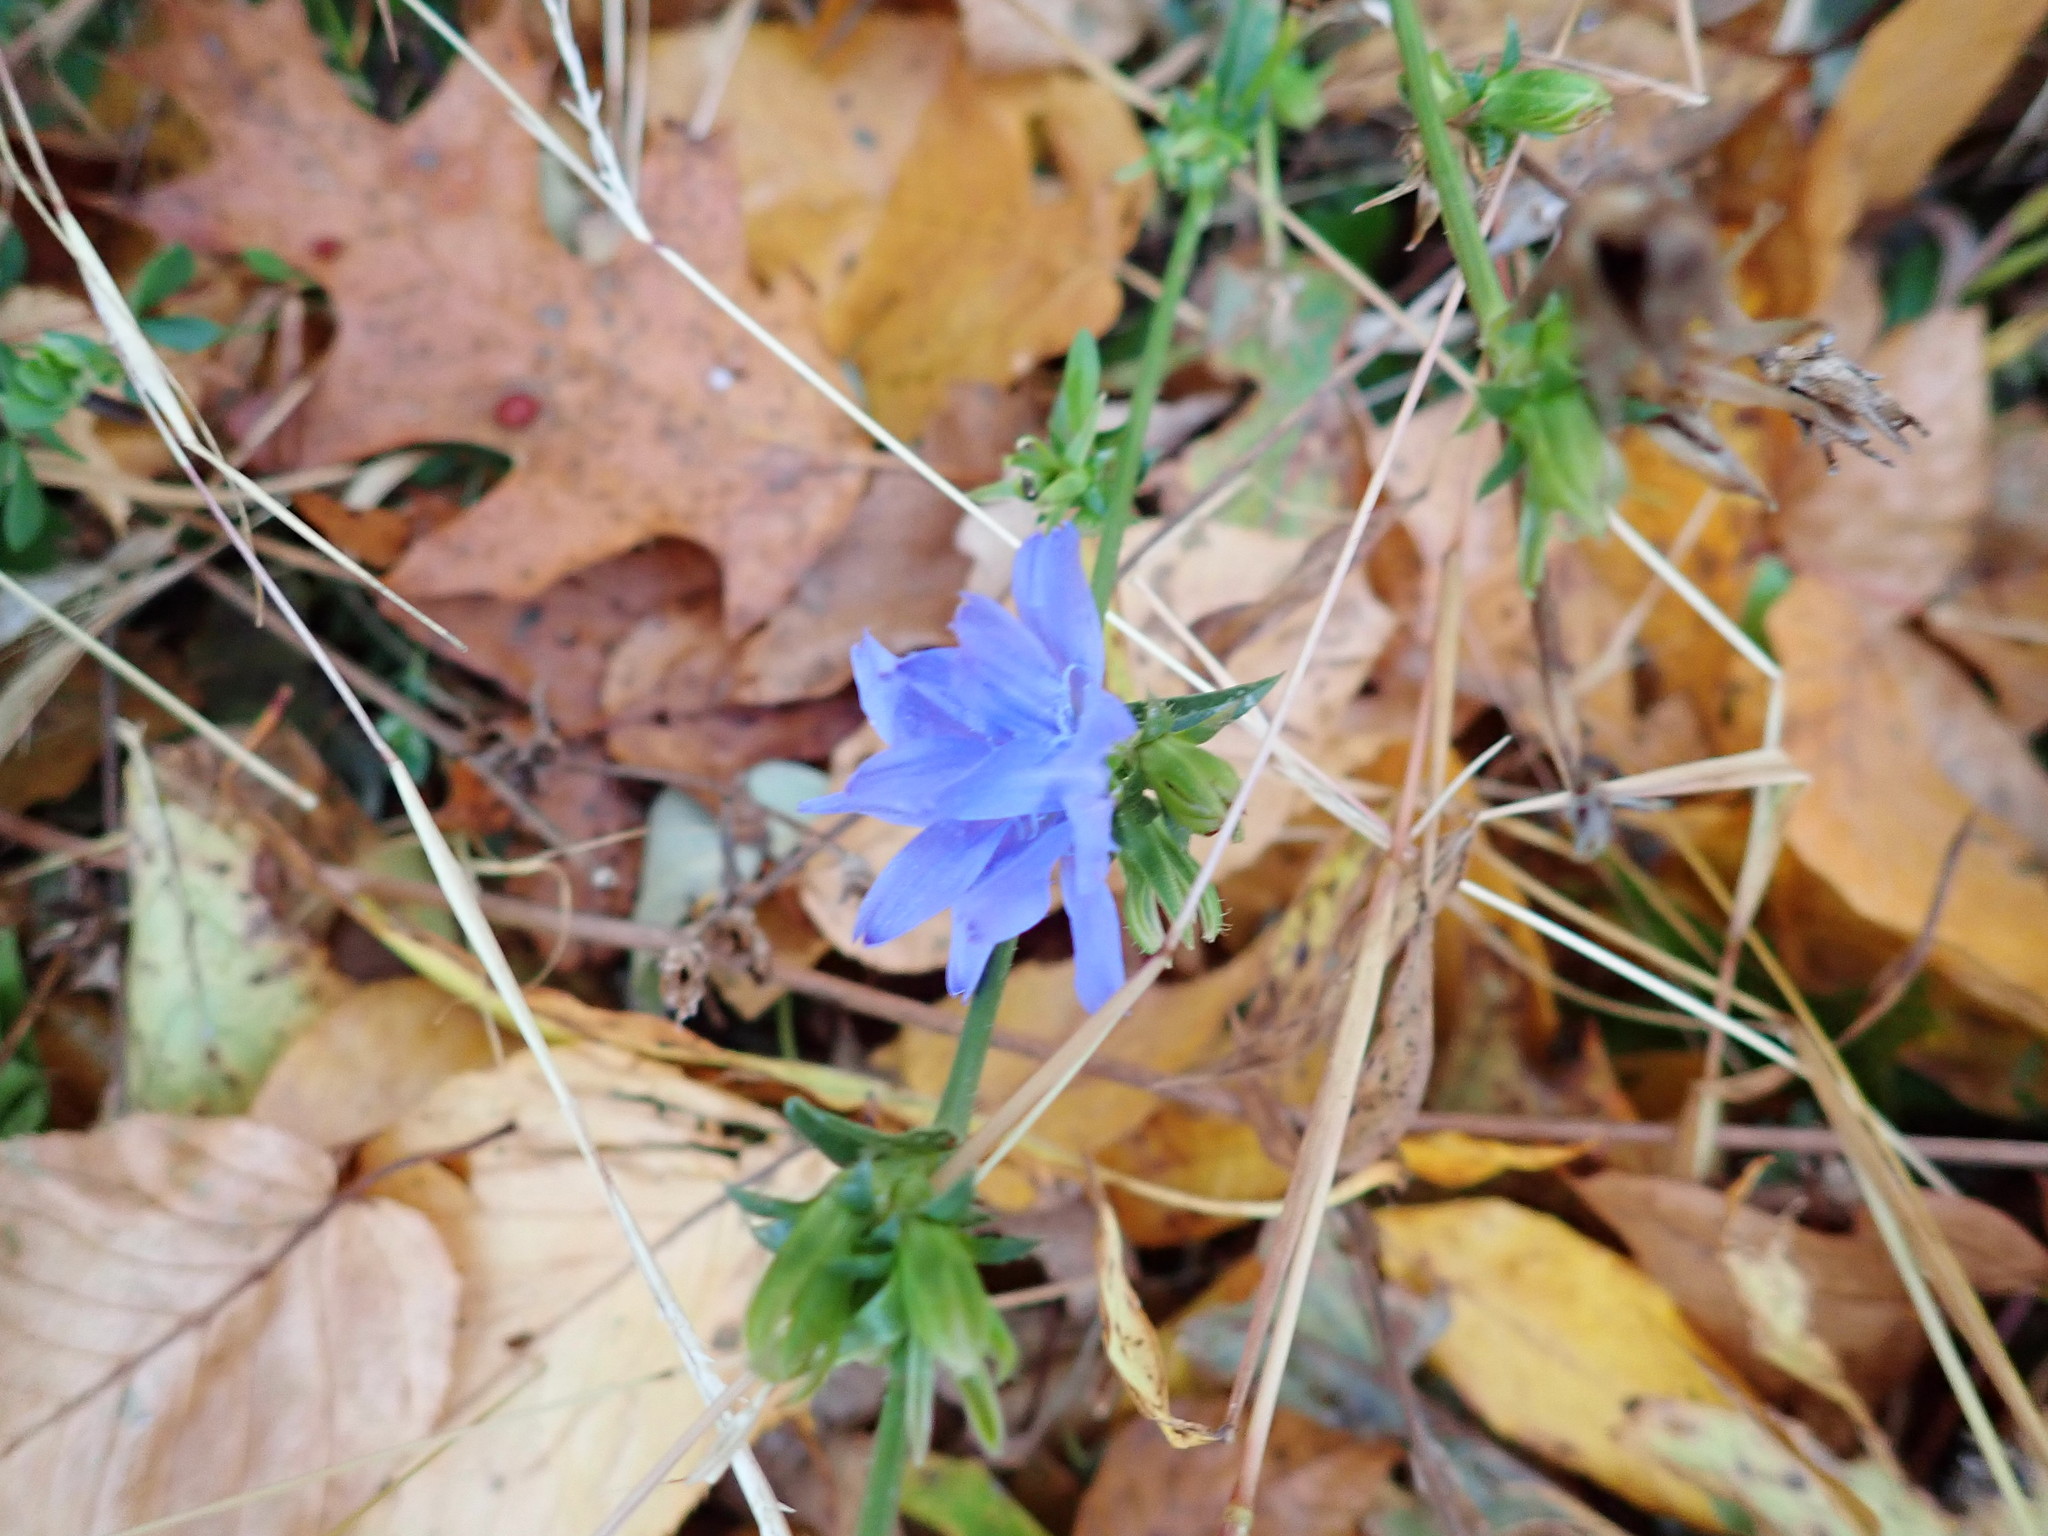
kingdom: Plantae
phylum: Tracheophyta
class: Magnoliopsida
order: Asterales
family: Asteraceae
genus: Cichorium
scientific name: Cichorium intybus
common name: Chicory
